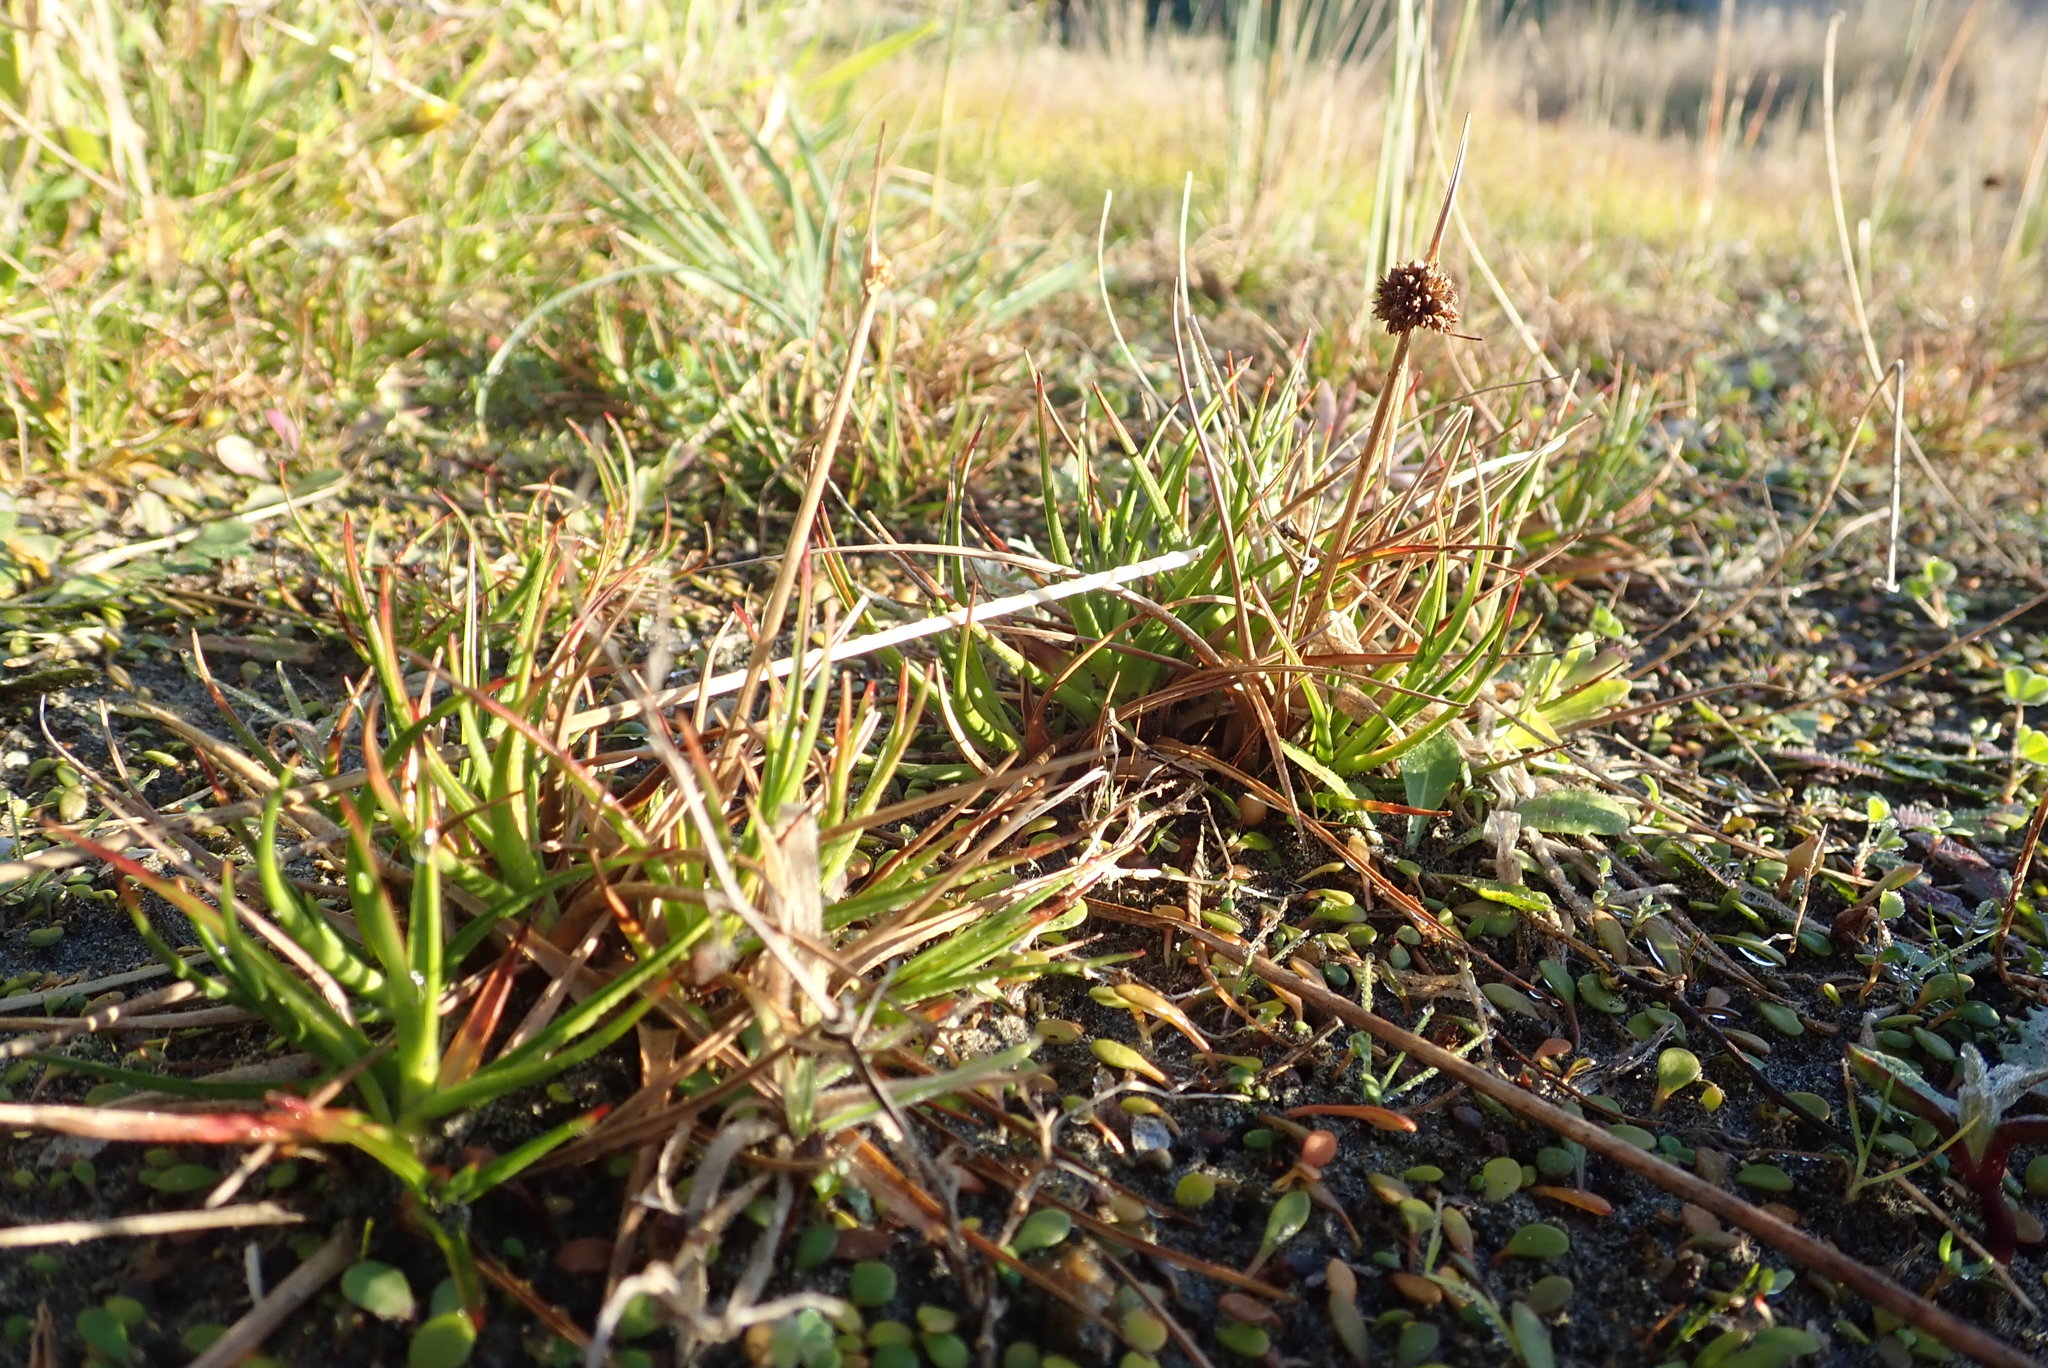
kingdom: Plantae
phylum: Tracheophyta
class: Liliopsida
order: Poales
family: Juncaceae
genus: Juncus
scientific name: Juncus caespiticius
